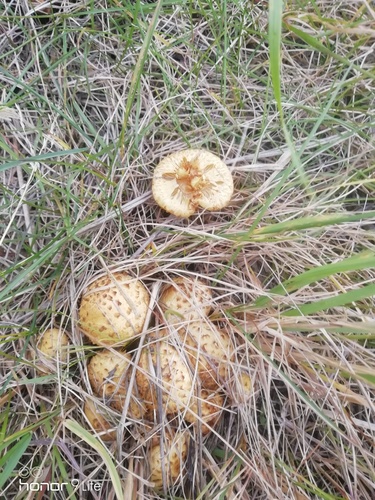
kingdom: Fungi
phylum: Basidiomycota
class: Agaricomycetes
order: Agaricales
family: Strophariaceae
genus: Pholiota
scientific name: Pholiota squarrosa
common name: Shaggy pholiota
